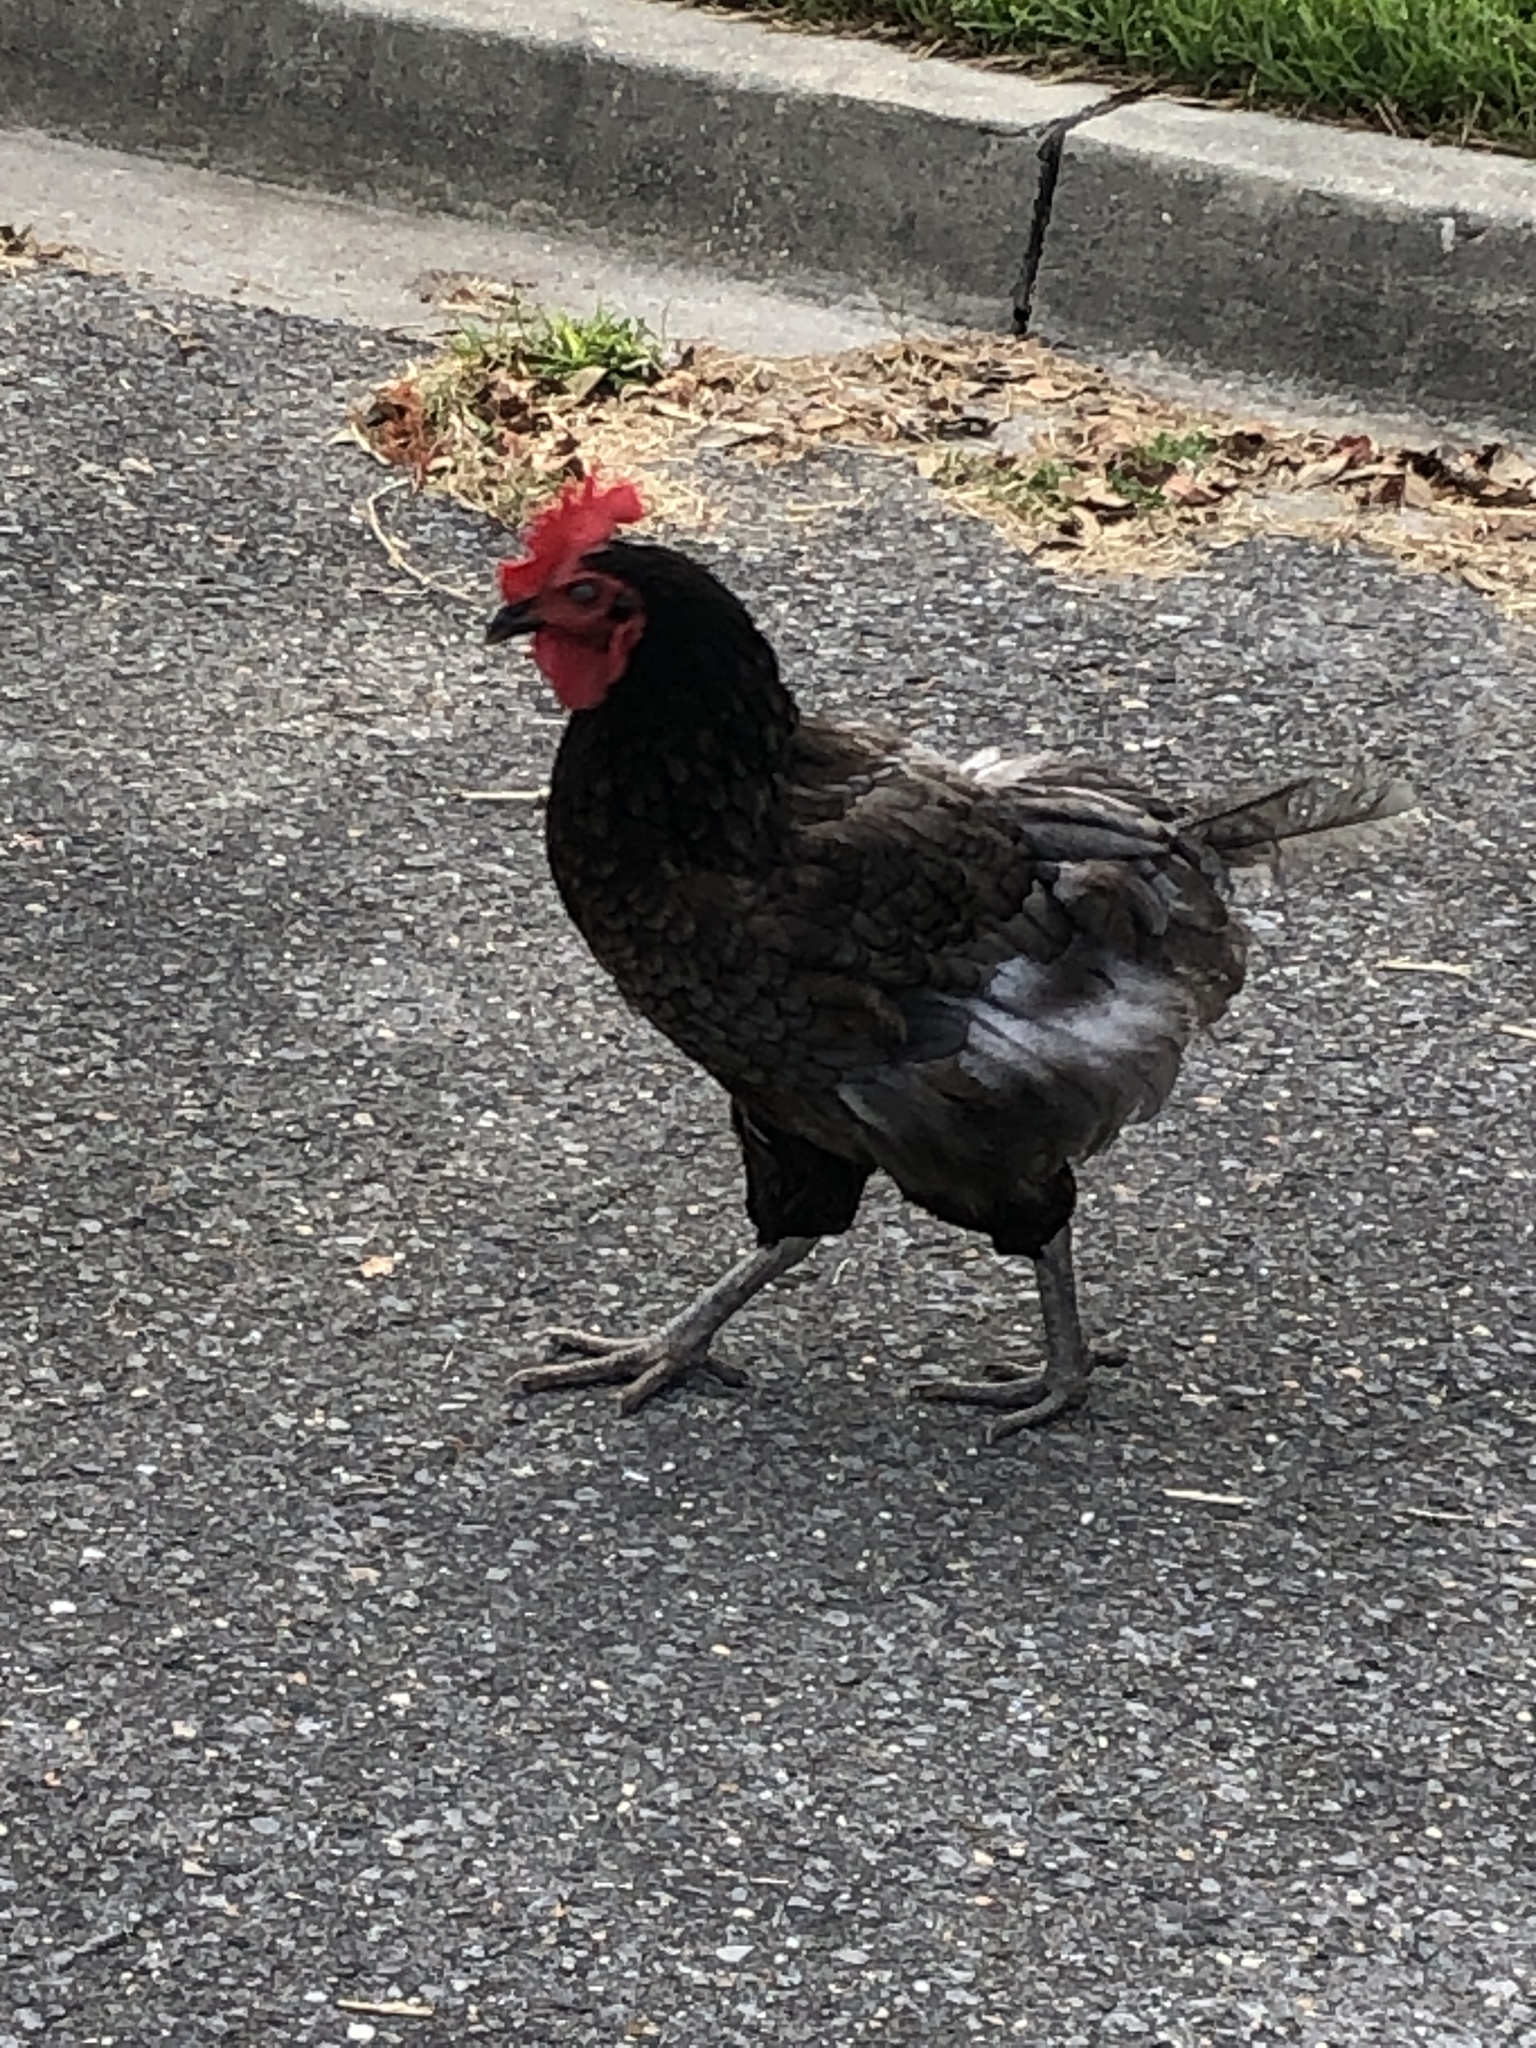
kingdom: Animalia
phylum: Chordata
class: Aves
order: Galliformes
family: Phasianidae
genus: Gallus
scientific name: Gallus gallus
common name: Red junglefowl
